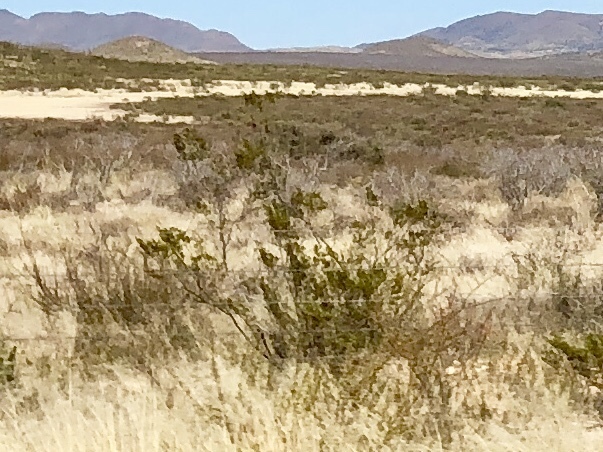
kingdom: Plantae
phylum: Tracheophyta
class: Magnoliopsida
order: Zygophyllales
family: Zygophyllaceae
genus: Larrea
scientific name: Larrea tridentata
